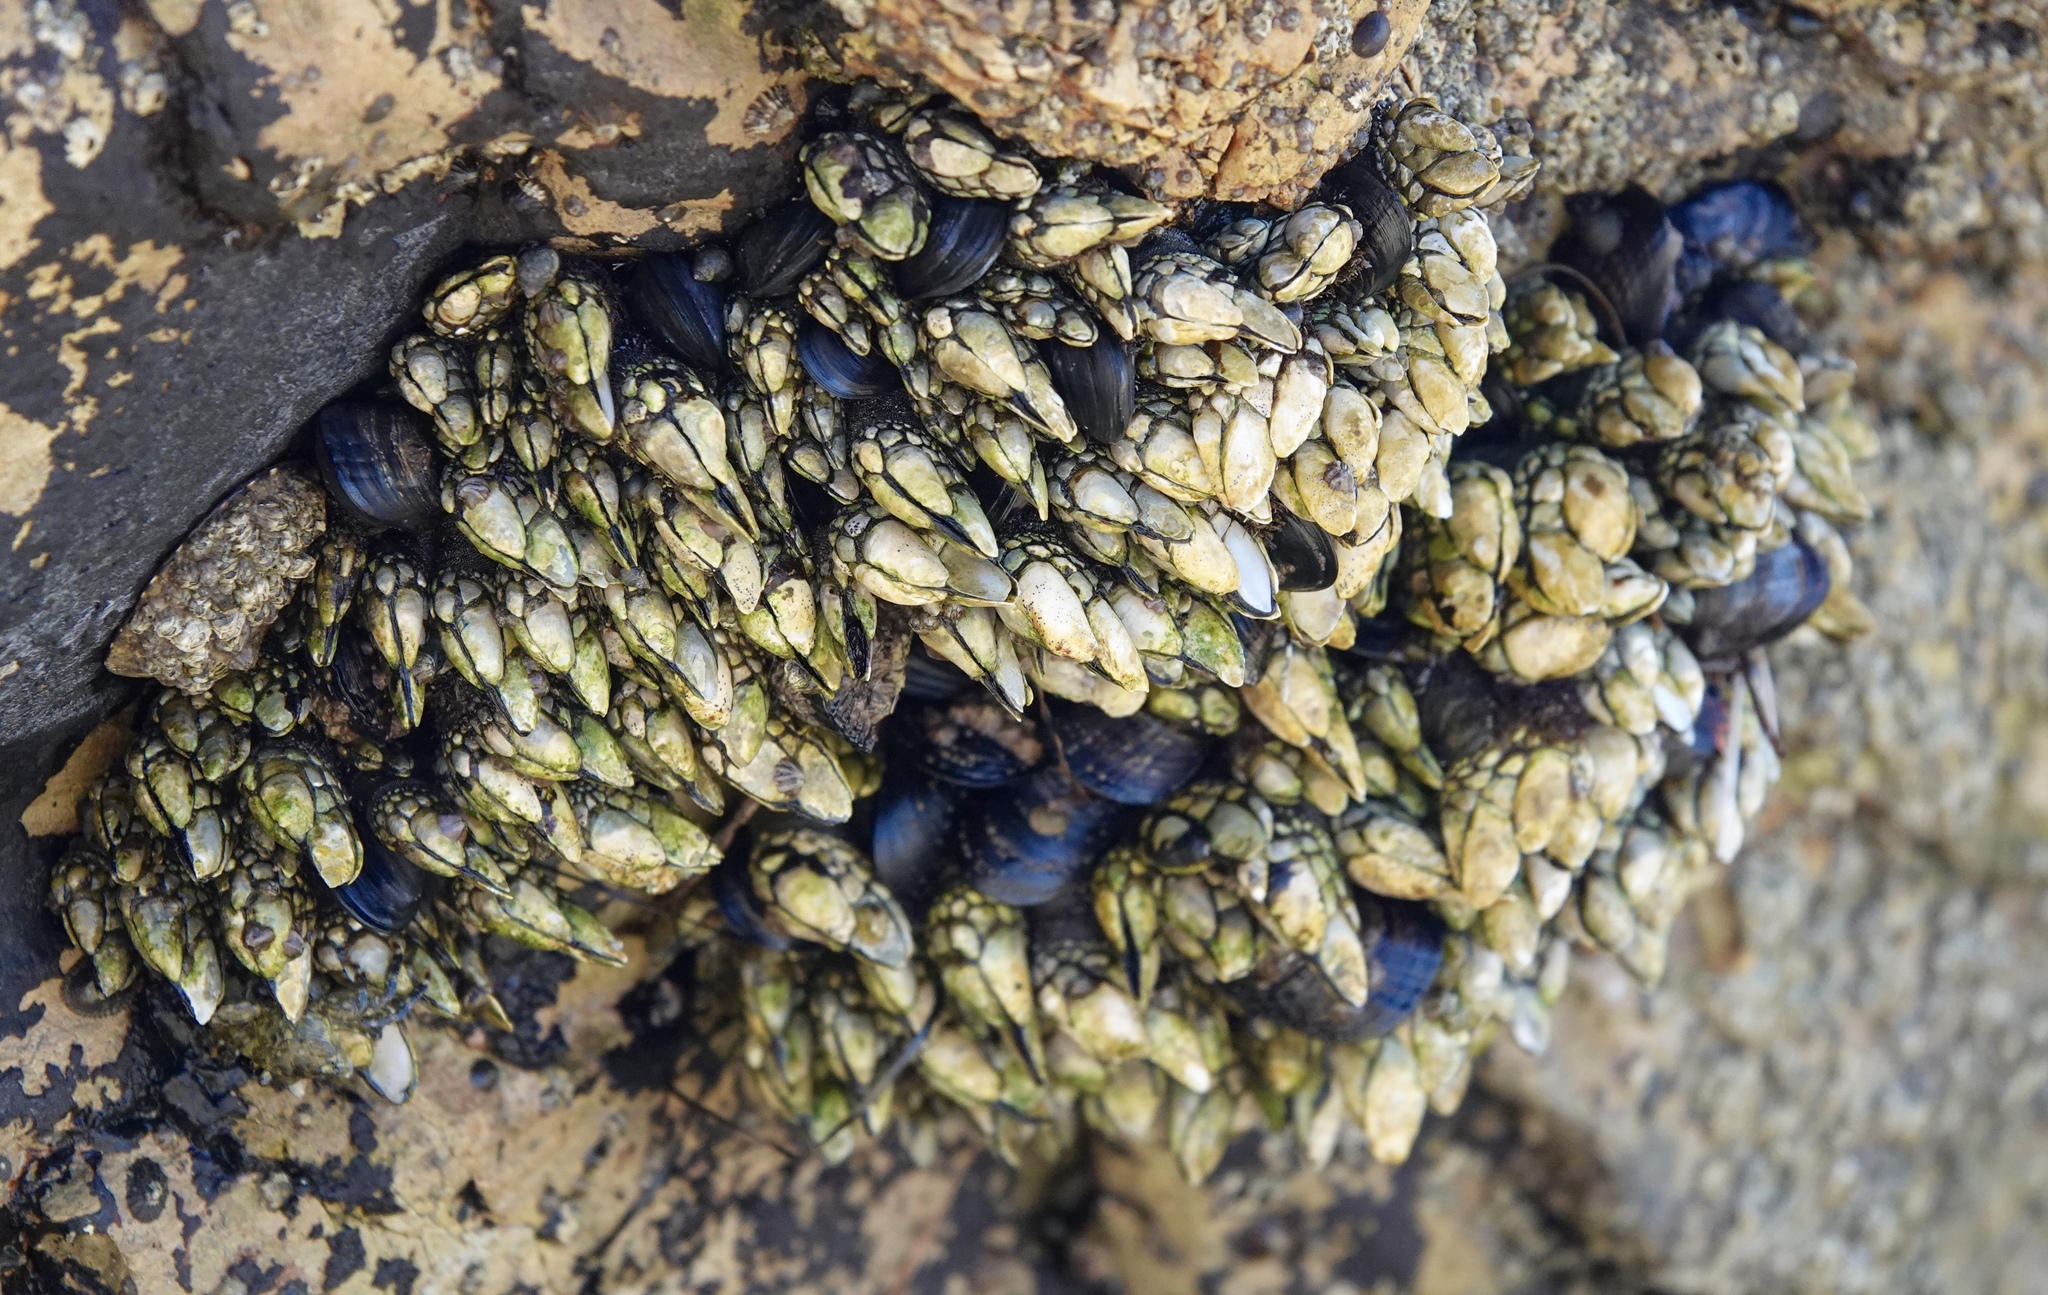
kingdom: Animalia
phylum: Arthropoda
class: Maxillopoda
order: Pedunculata
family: Pollicipedidae
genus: Pollicipes
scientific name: Pollicipes polymerus
